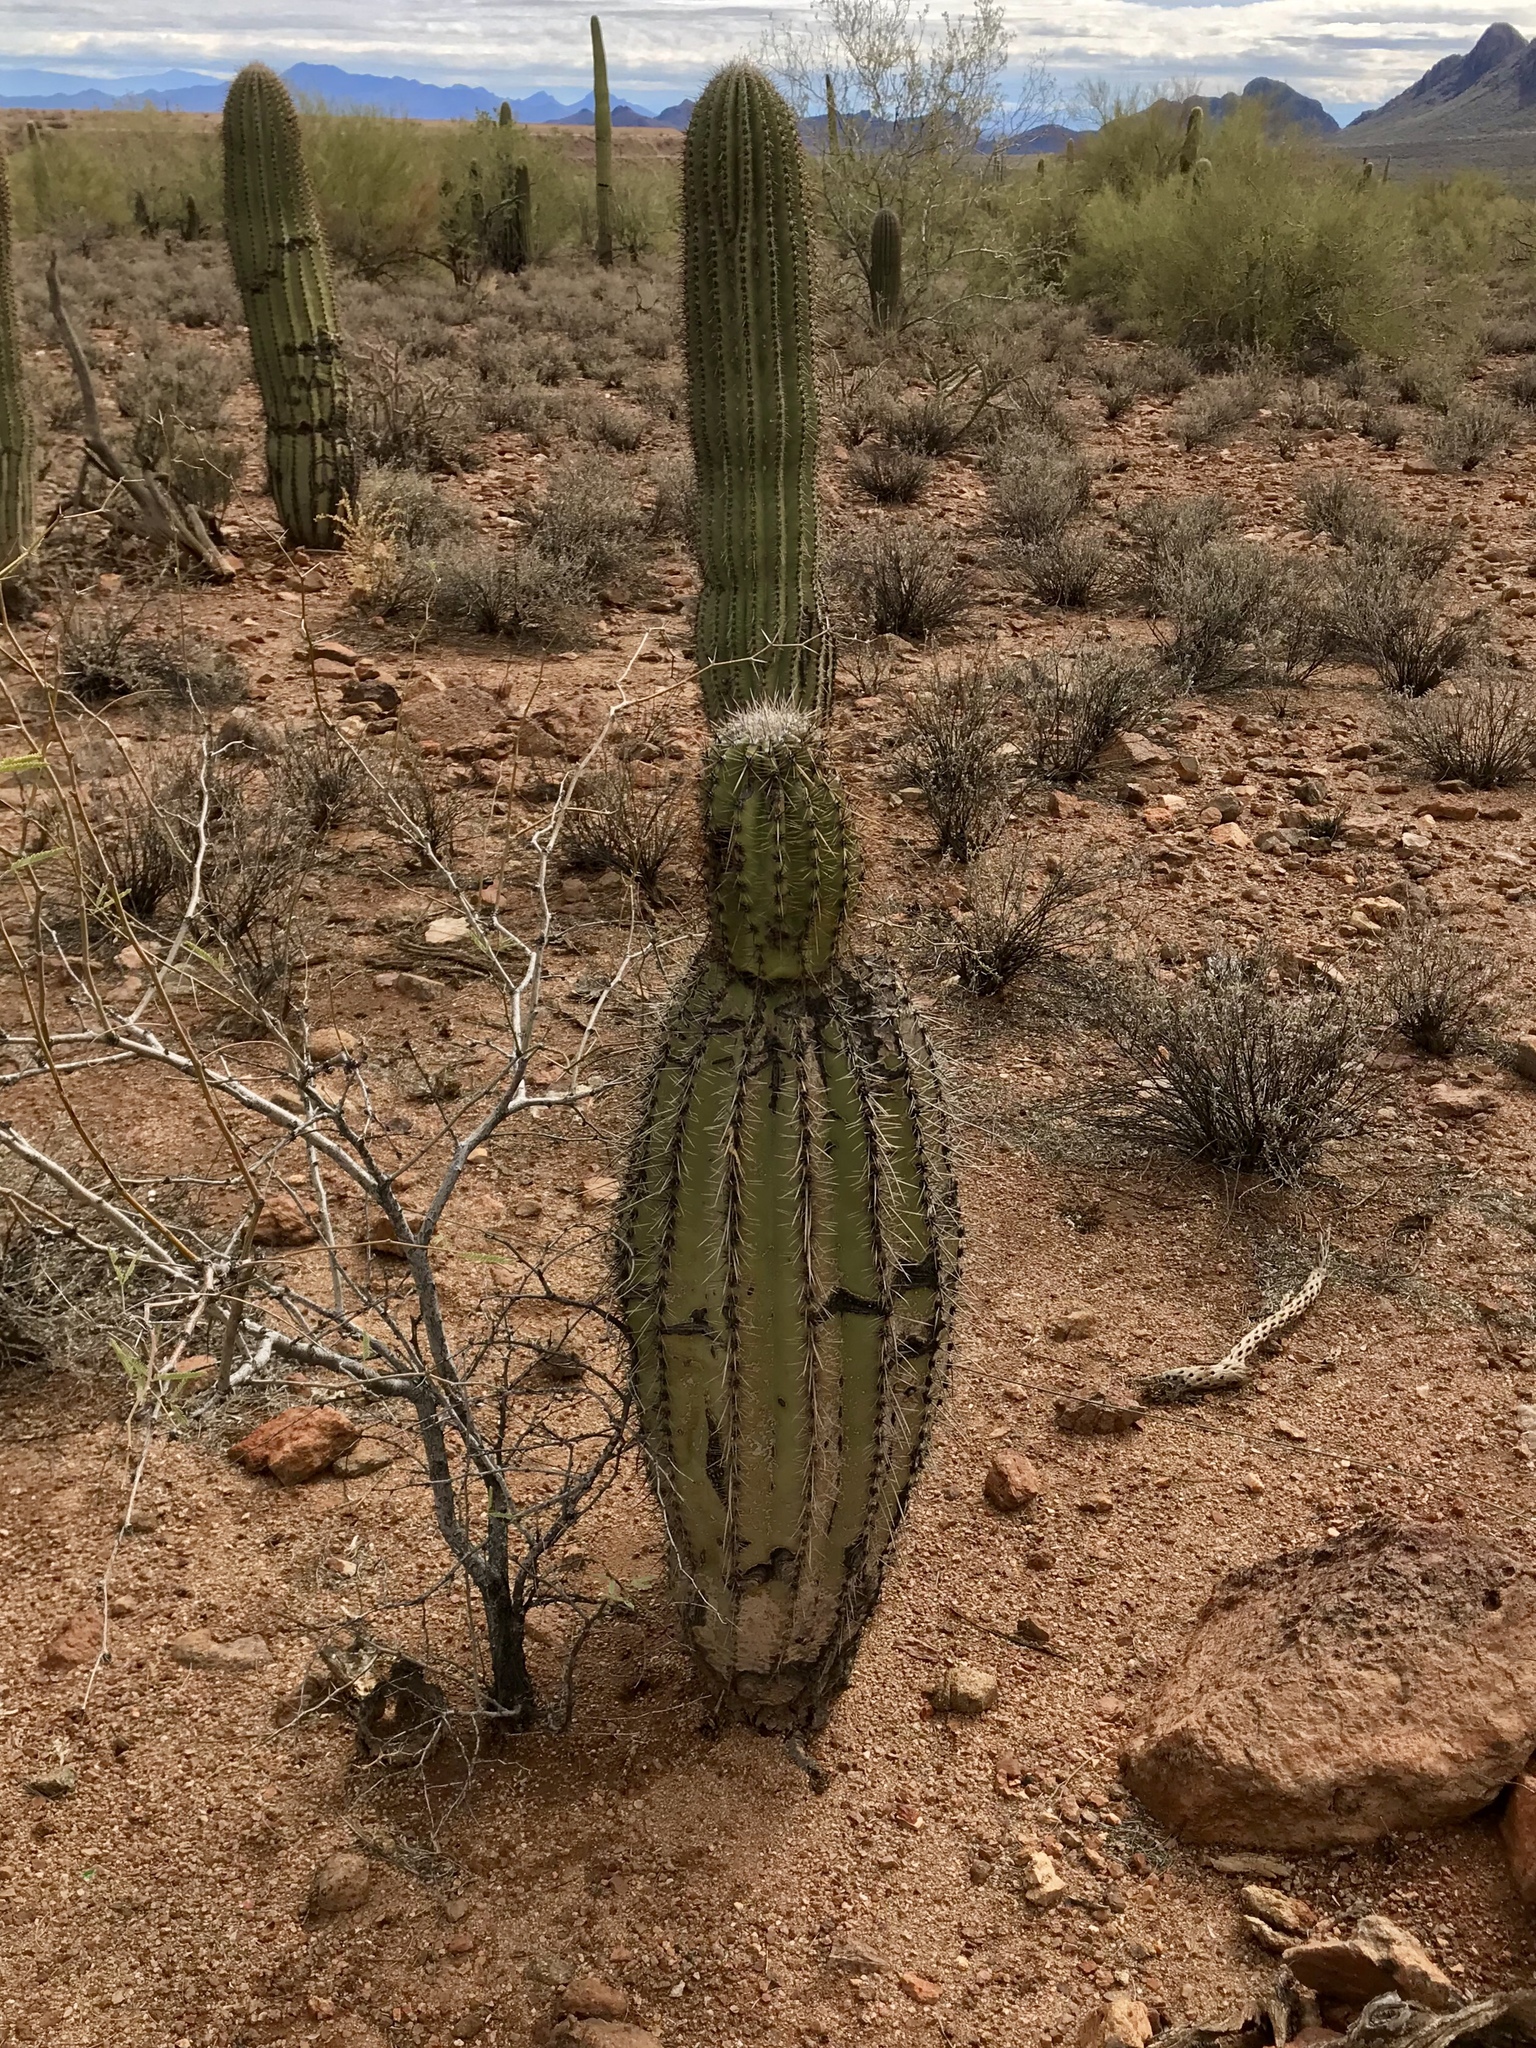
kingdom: Plantae
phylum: Tracheophyta
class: Magnoliopsida
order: Caryophyllales
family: Cactaceae
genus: Carnegiea
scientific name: Carnegiea gigantea
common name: Saguaro
